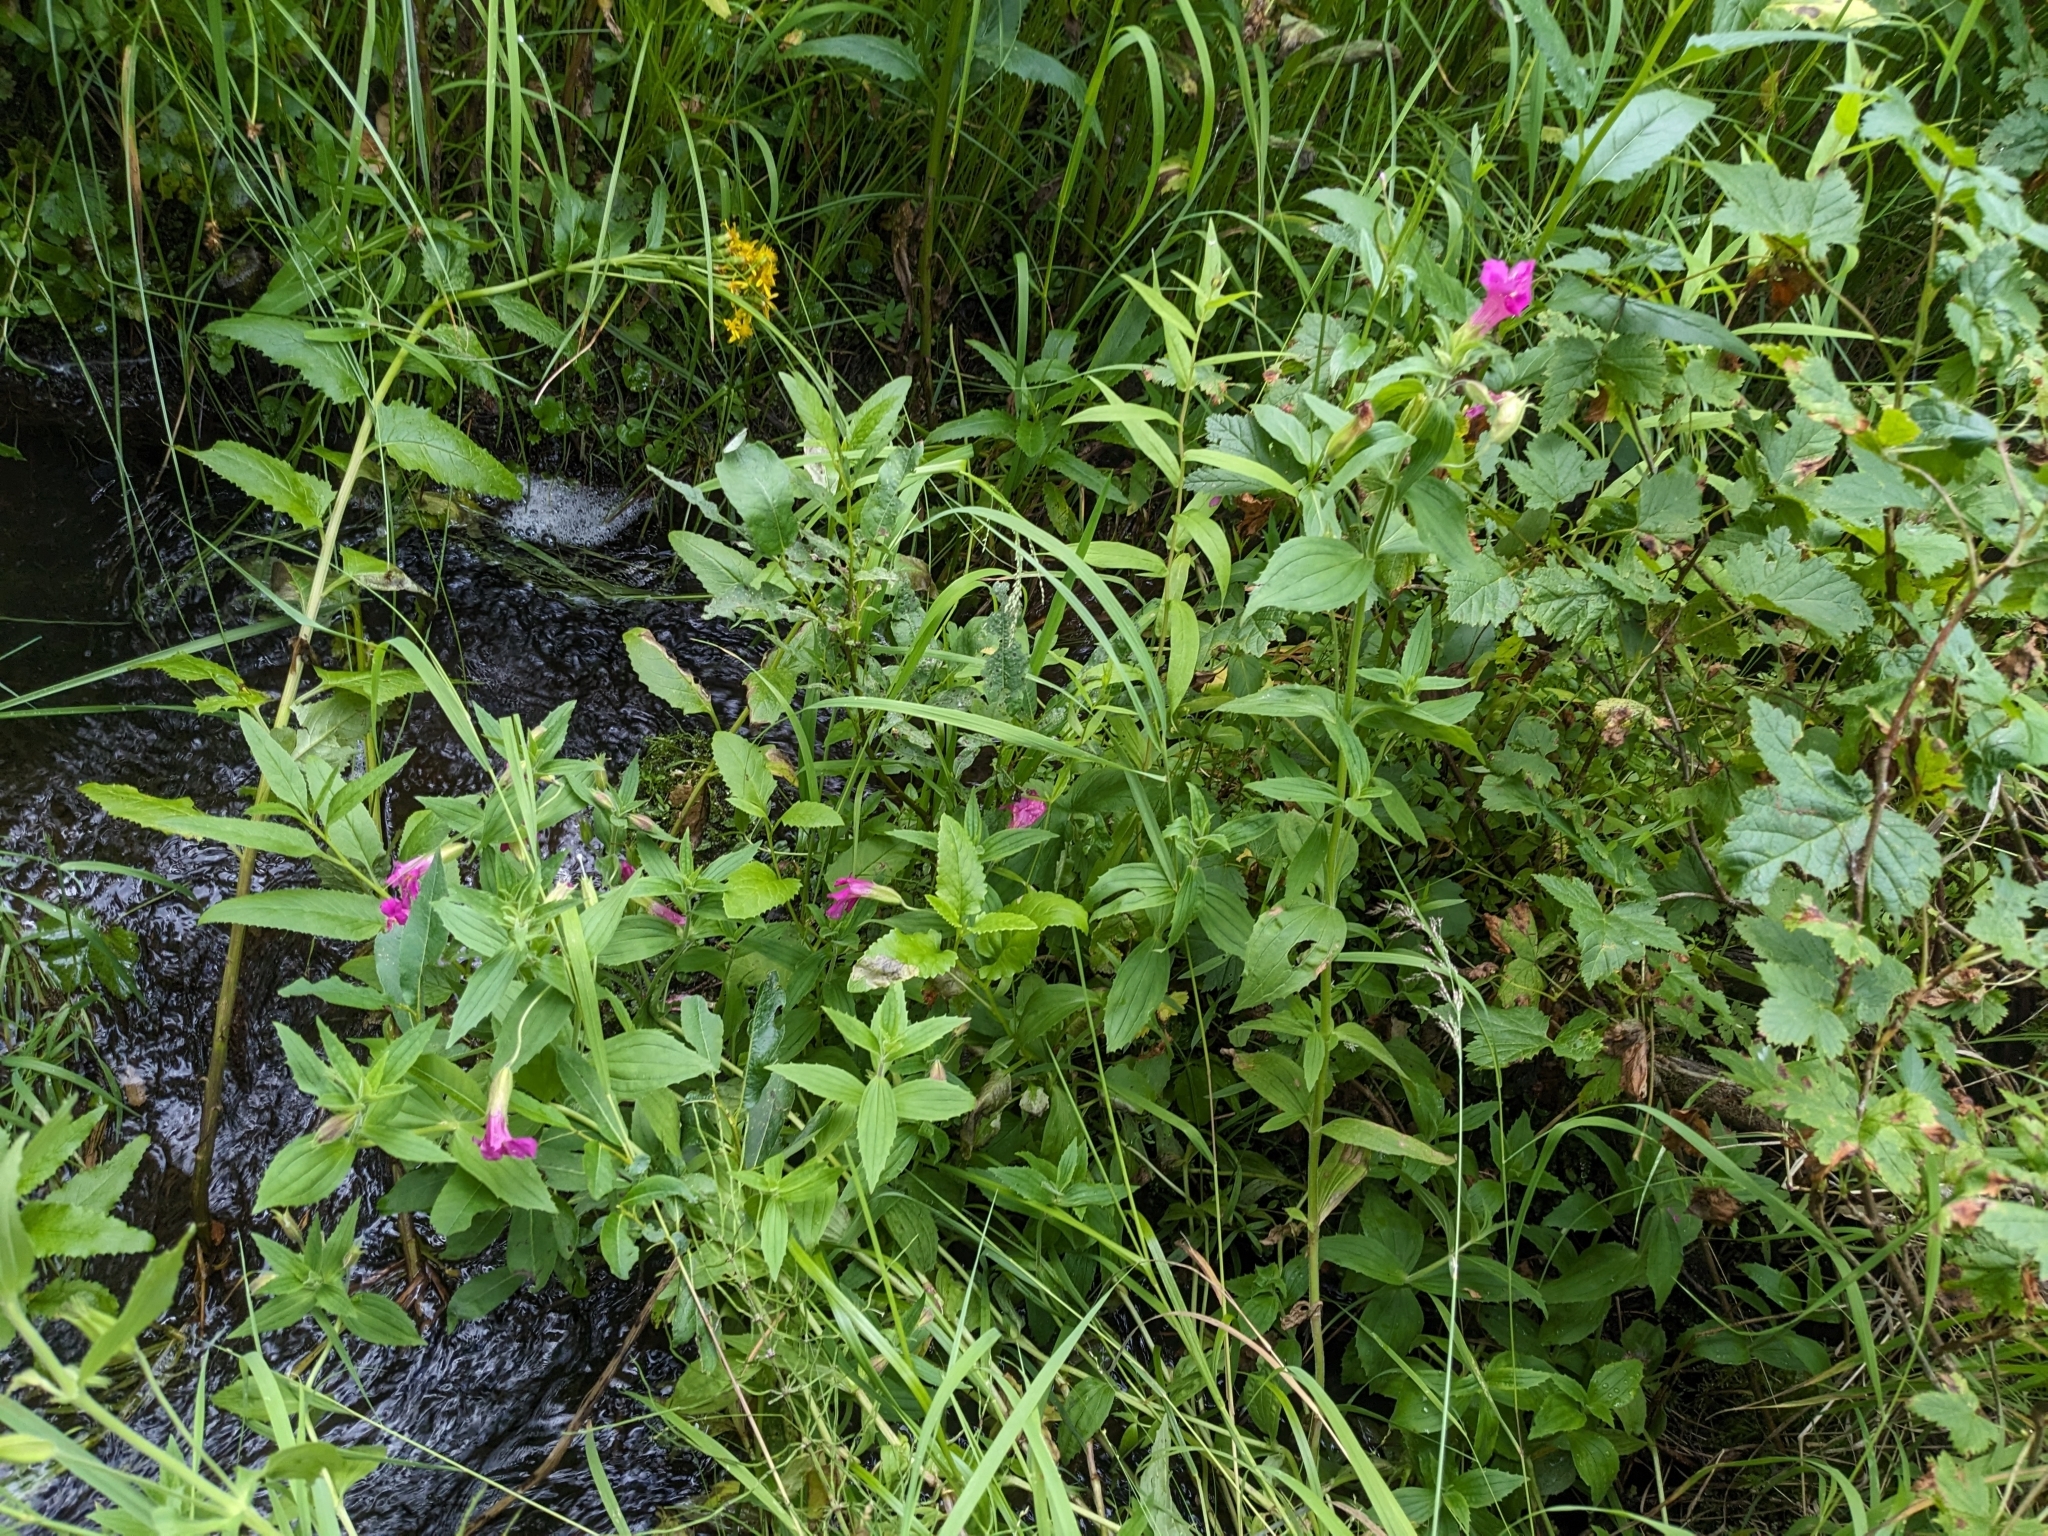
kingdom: Plantae
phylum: Tracheophyta
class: Magnoliopsida
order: Lamiales
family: Phrymaceae
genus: Erythranthe
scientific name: Erythranthe lewisii
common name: Lewis's monkey-flower
